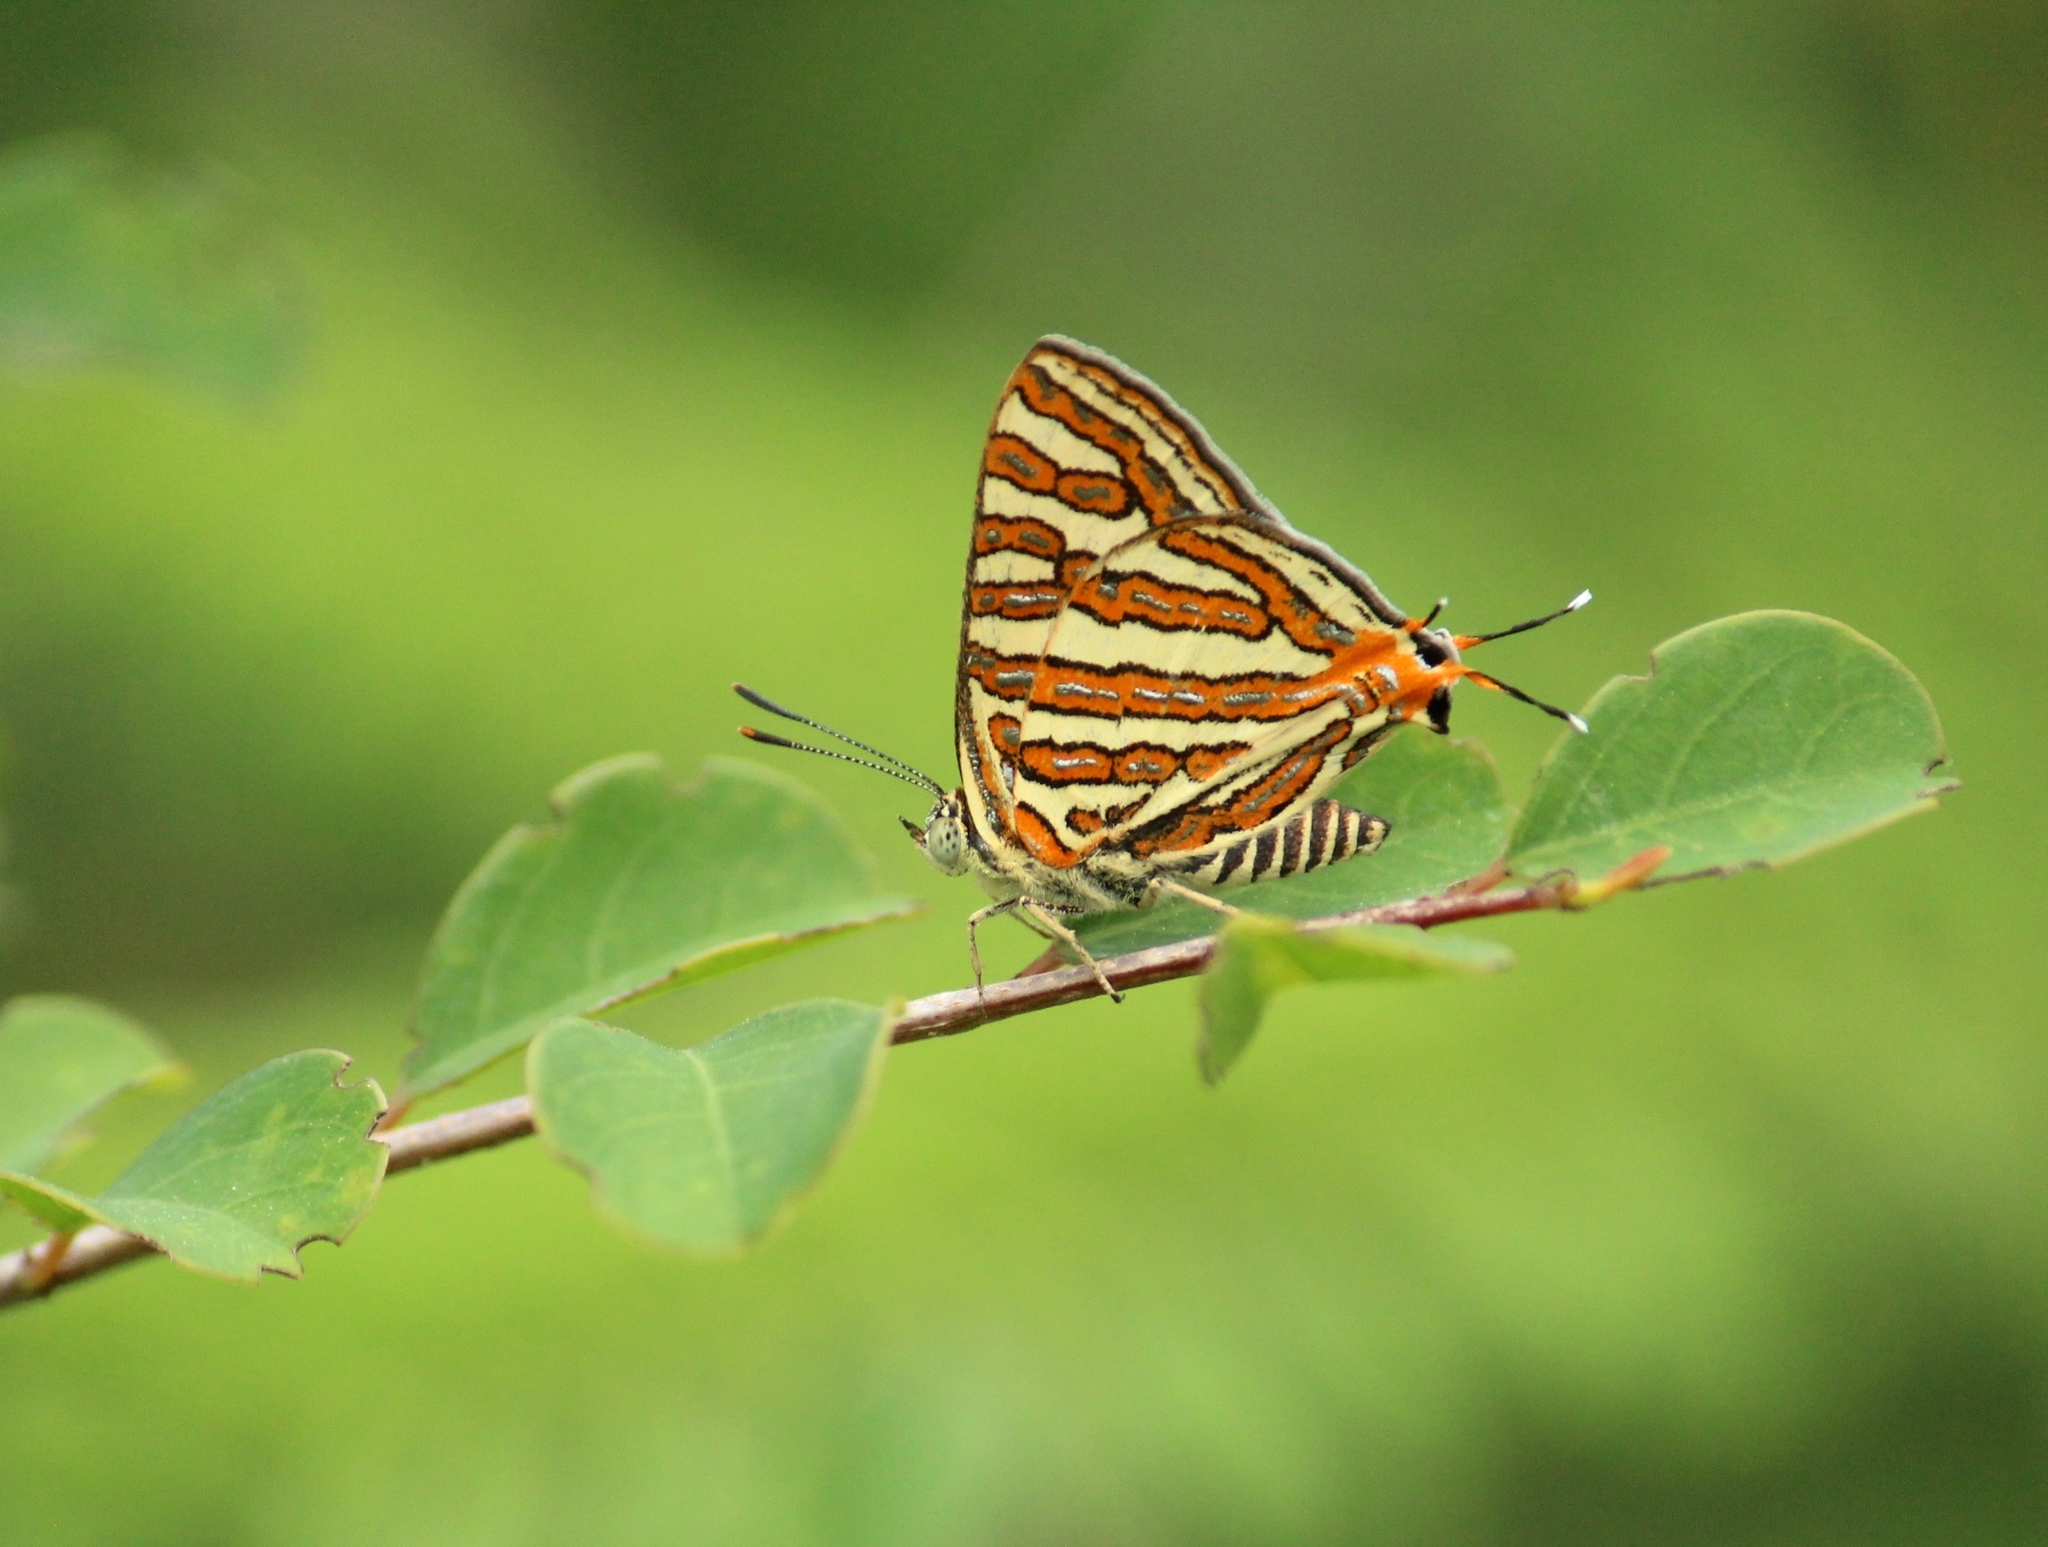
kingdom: Animalia
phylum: Arthropoda
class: Insecta
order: Lepidoptera
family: Lycaenidae
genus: Cigaritis
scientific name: Cigaritis vulcanus
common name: Common silverline
